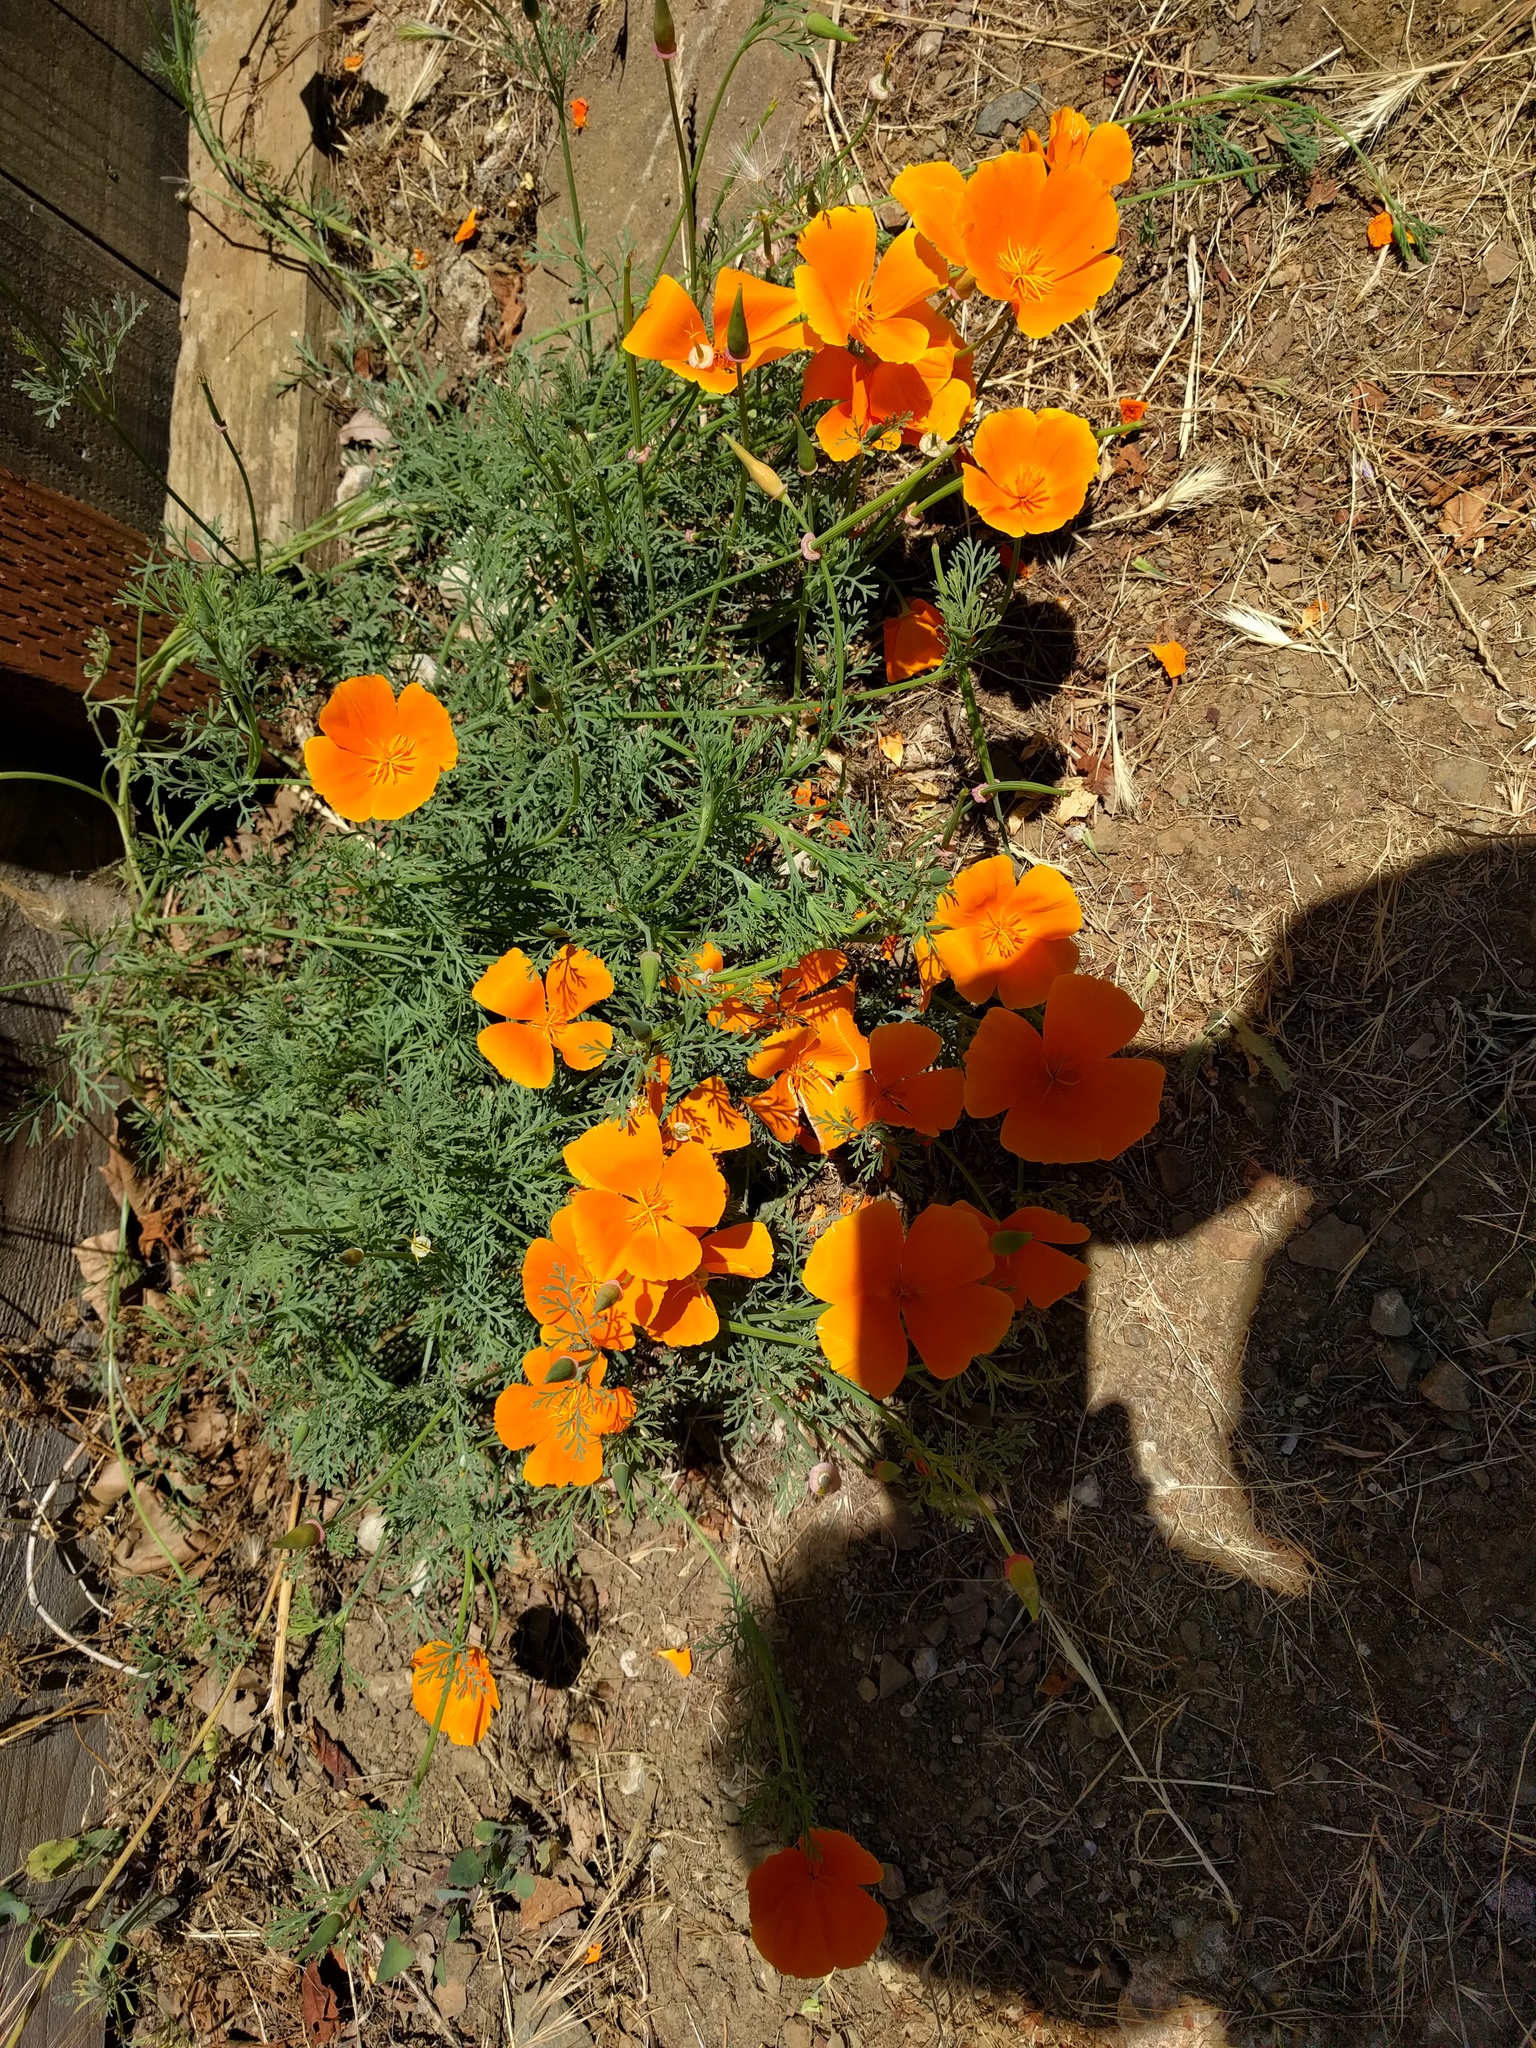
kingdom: Plantae
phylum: Tracheophyta
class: Magnoliopsida
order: Ranunculales
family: Papaveraceae
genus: Eschscholzia
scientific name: Eschscholzia californica
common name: California poppy
